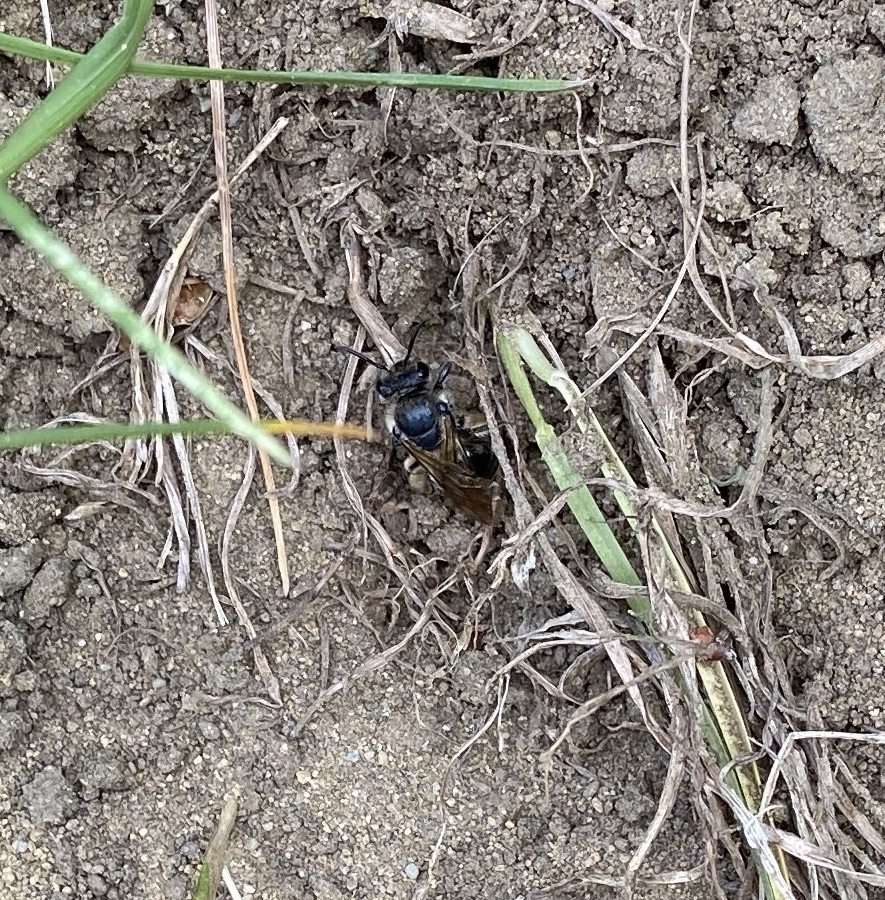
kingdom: Animalia
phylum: Arthropoda
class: Insecta
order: Hymenoptera
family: Andrenidae
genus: Andrena
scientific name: Andrena
